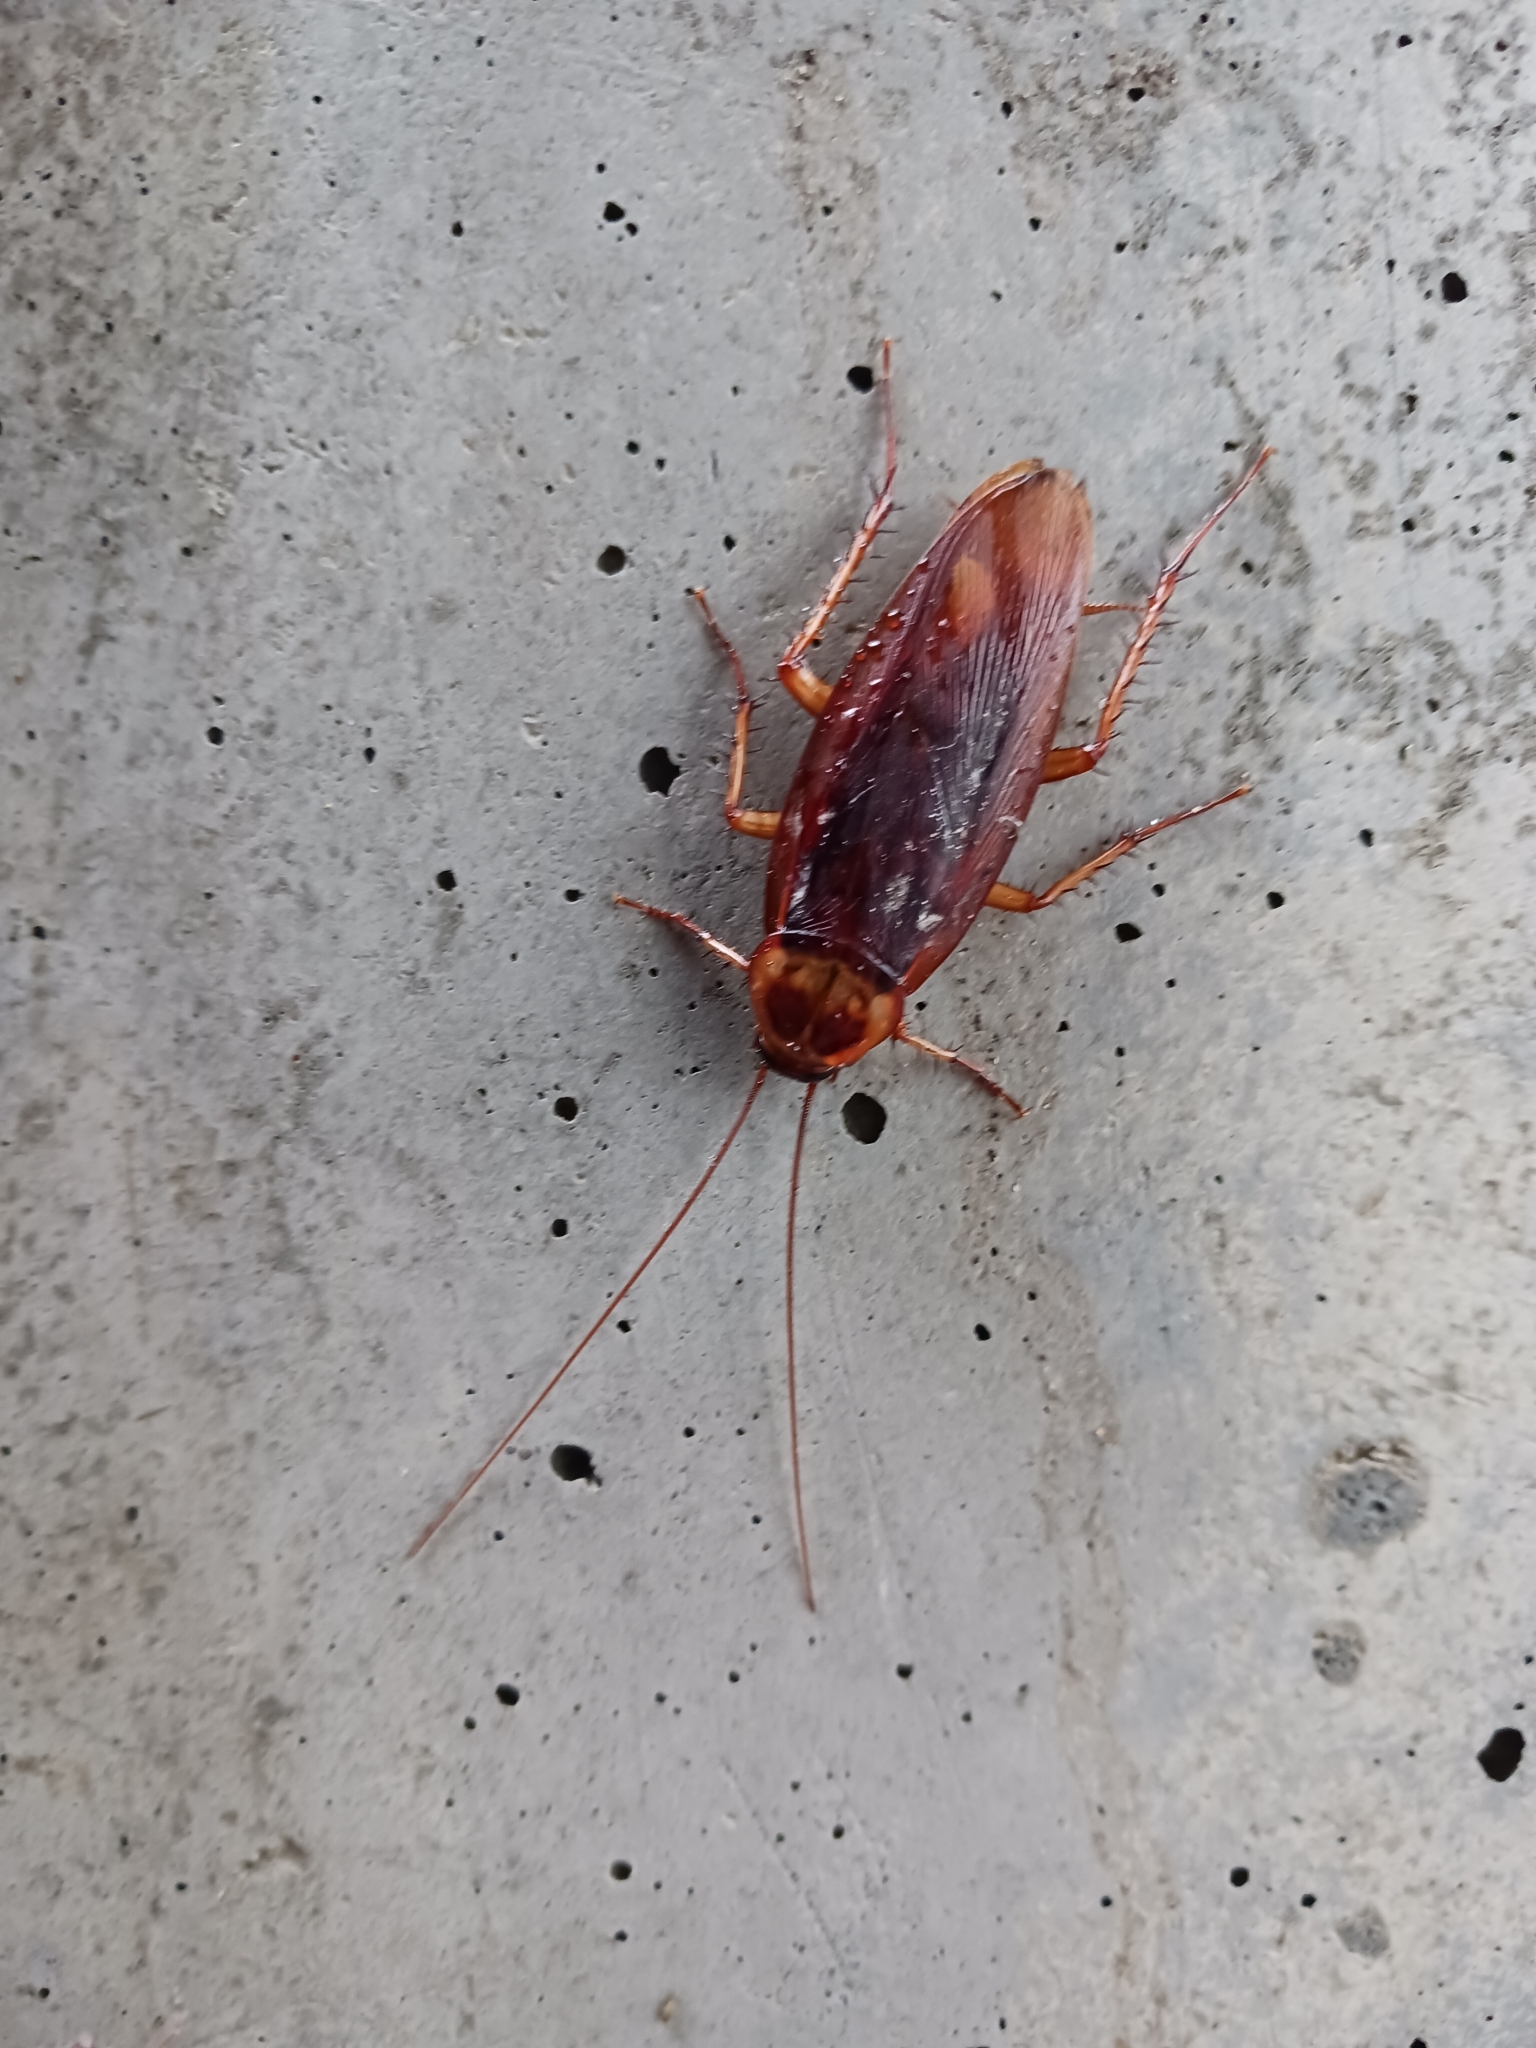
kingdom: Animalia
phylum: Arthropoda
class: Insecta
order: Blattodea
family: Blattidae
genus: Periplaneta
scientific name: Periplaneta americana
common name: American cockroach
